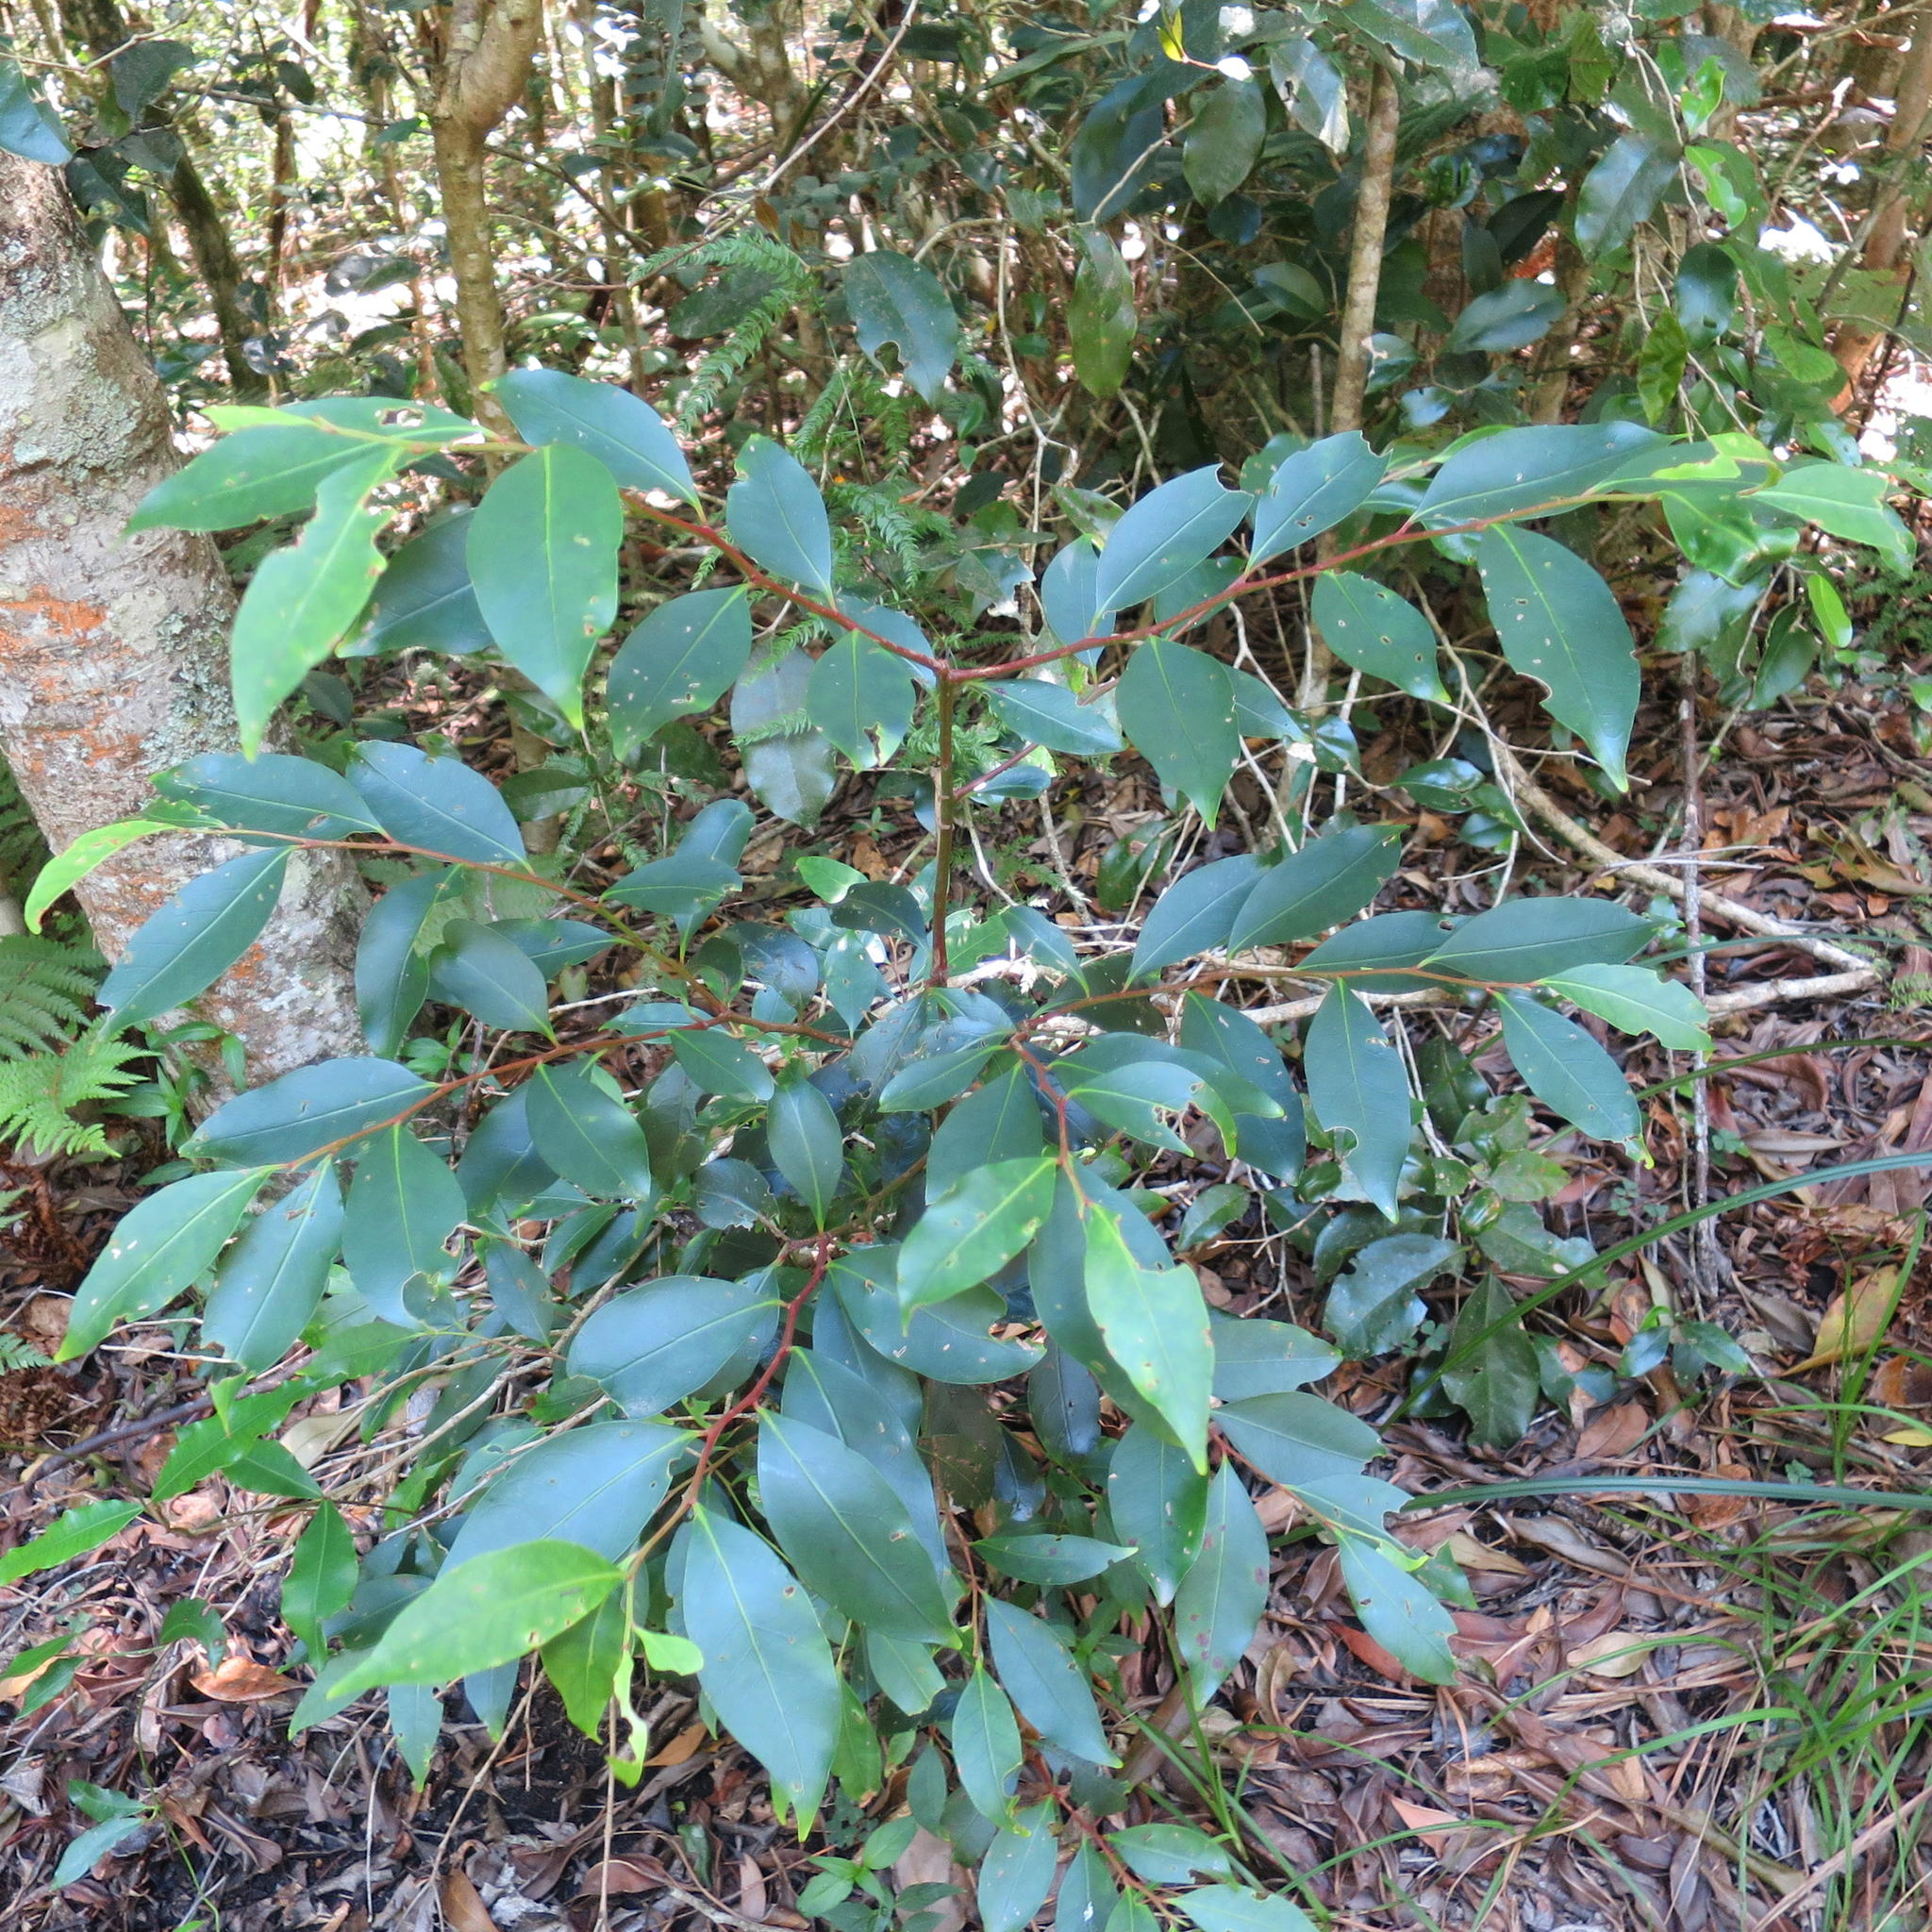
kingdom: Plantae
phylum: Tracheophyta
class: Magnoliopsida
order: Celastrales
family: Celastraceae
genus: Pterocelastrus
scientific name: Pterocelastrus rostratus
